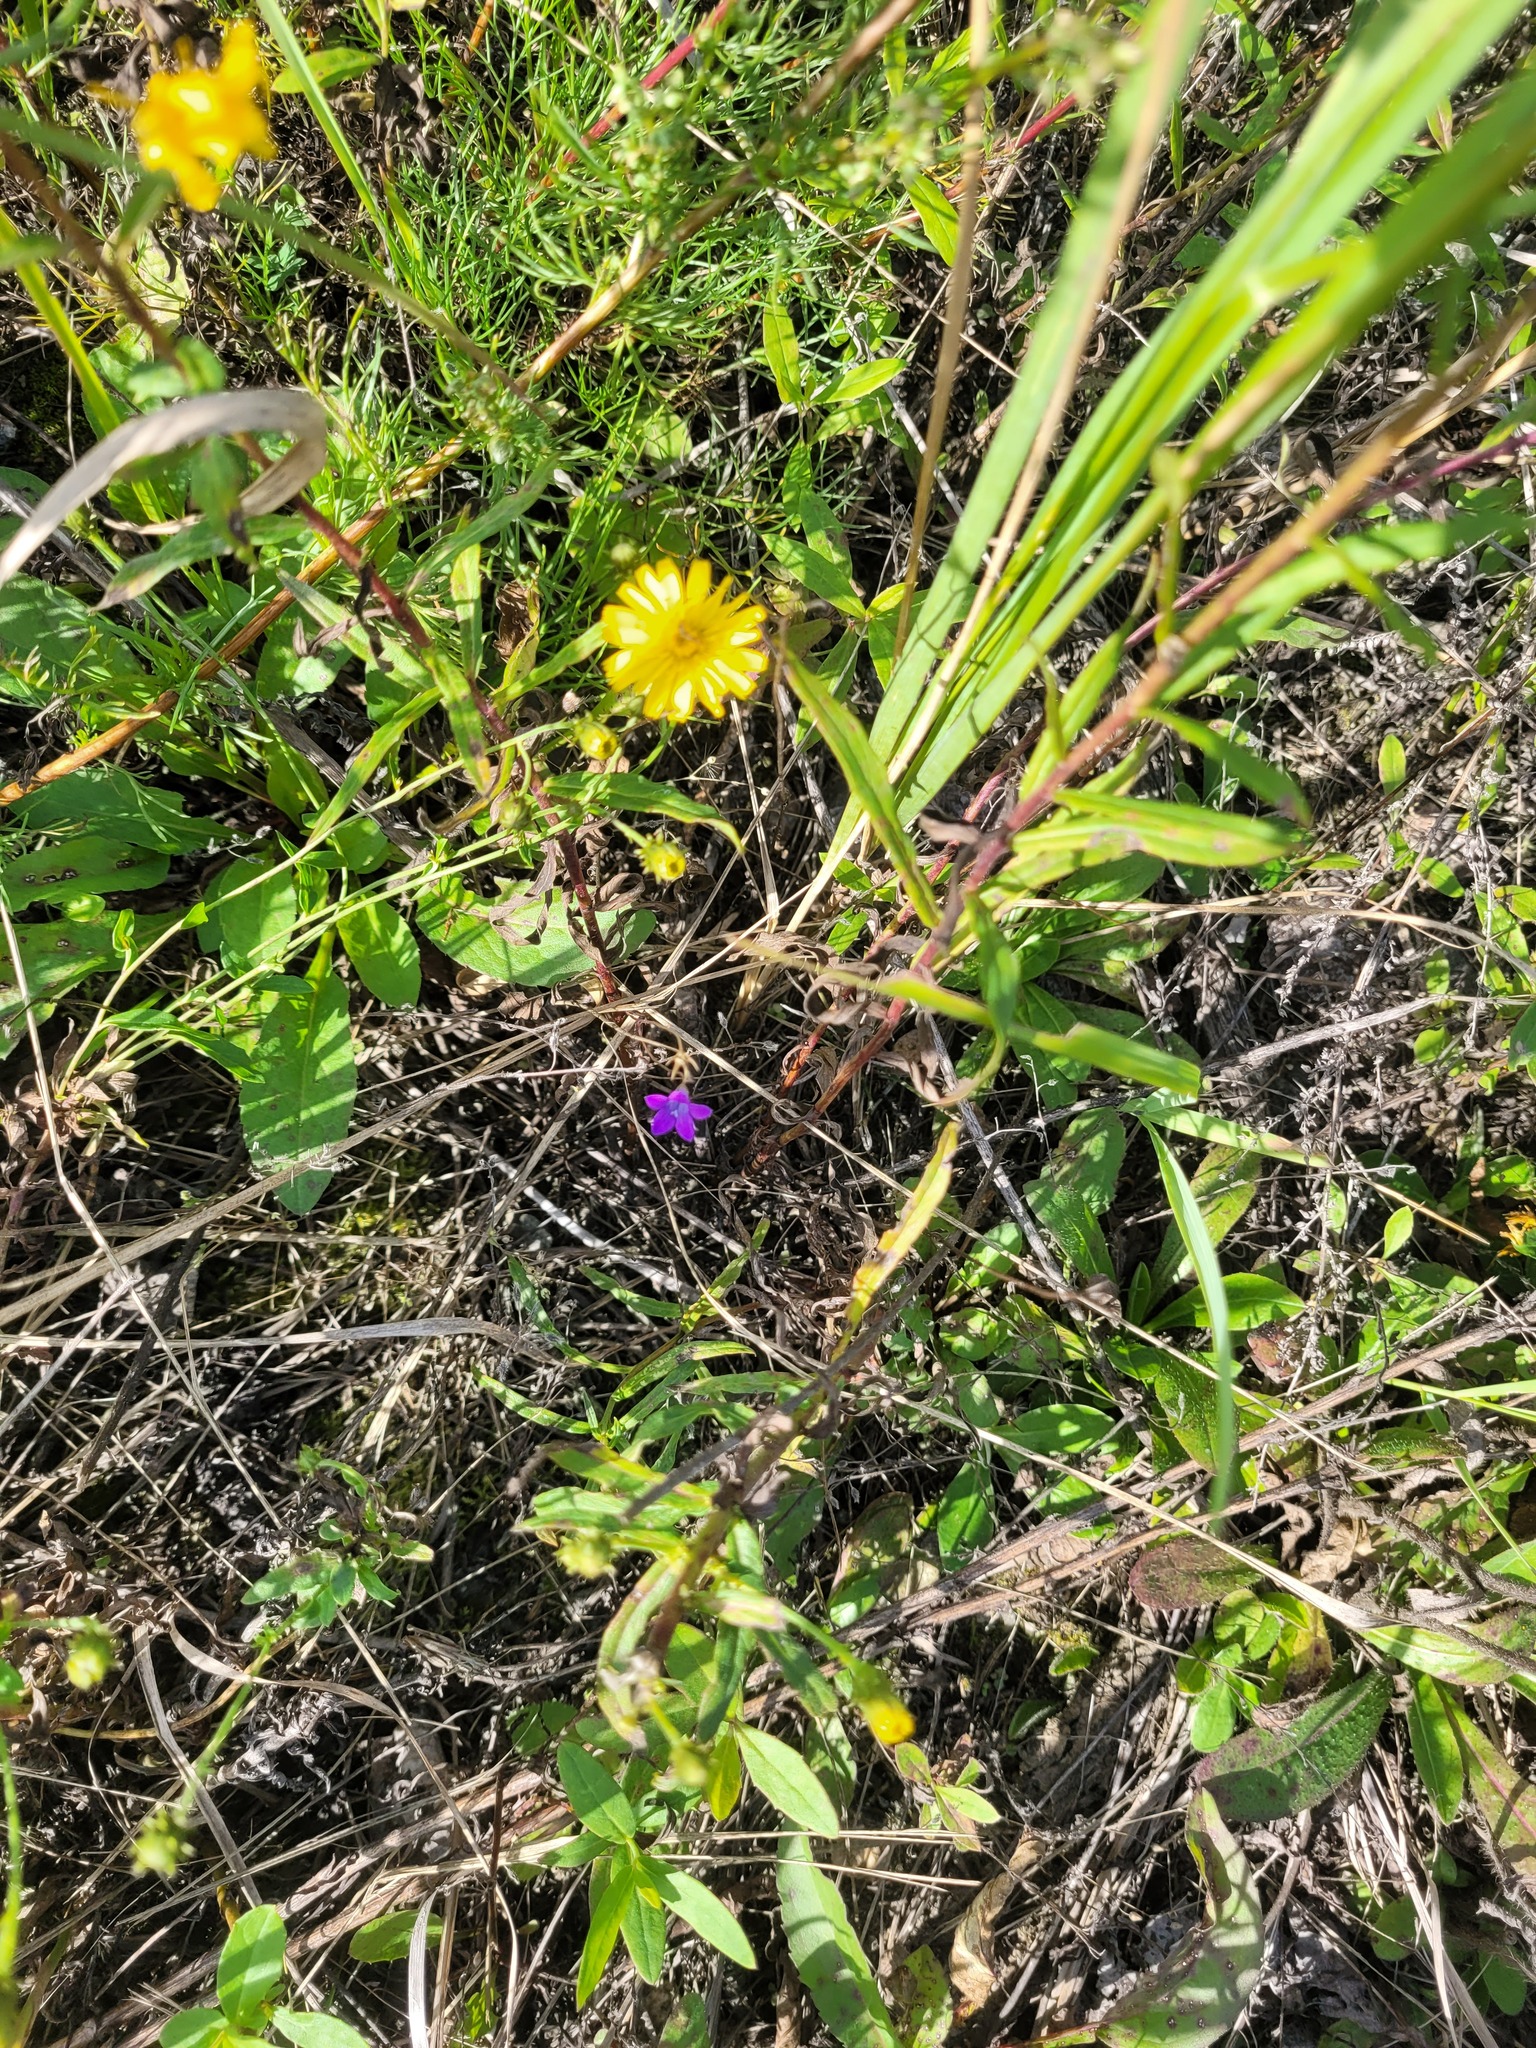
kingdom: Plantae
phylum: Tracheophyta
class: Magnoliopsida
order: Asterales
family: Campanulaceae
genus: Campanula
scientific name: Campanula patula
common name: Spreading bellflower
